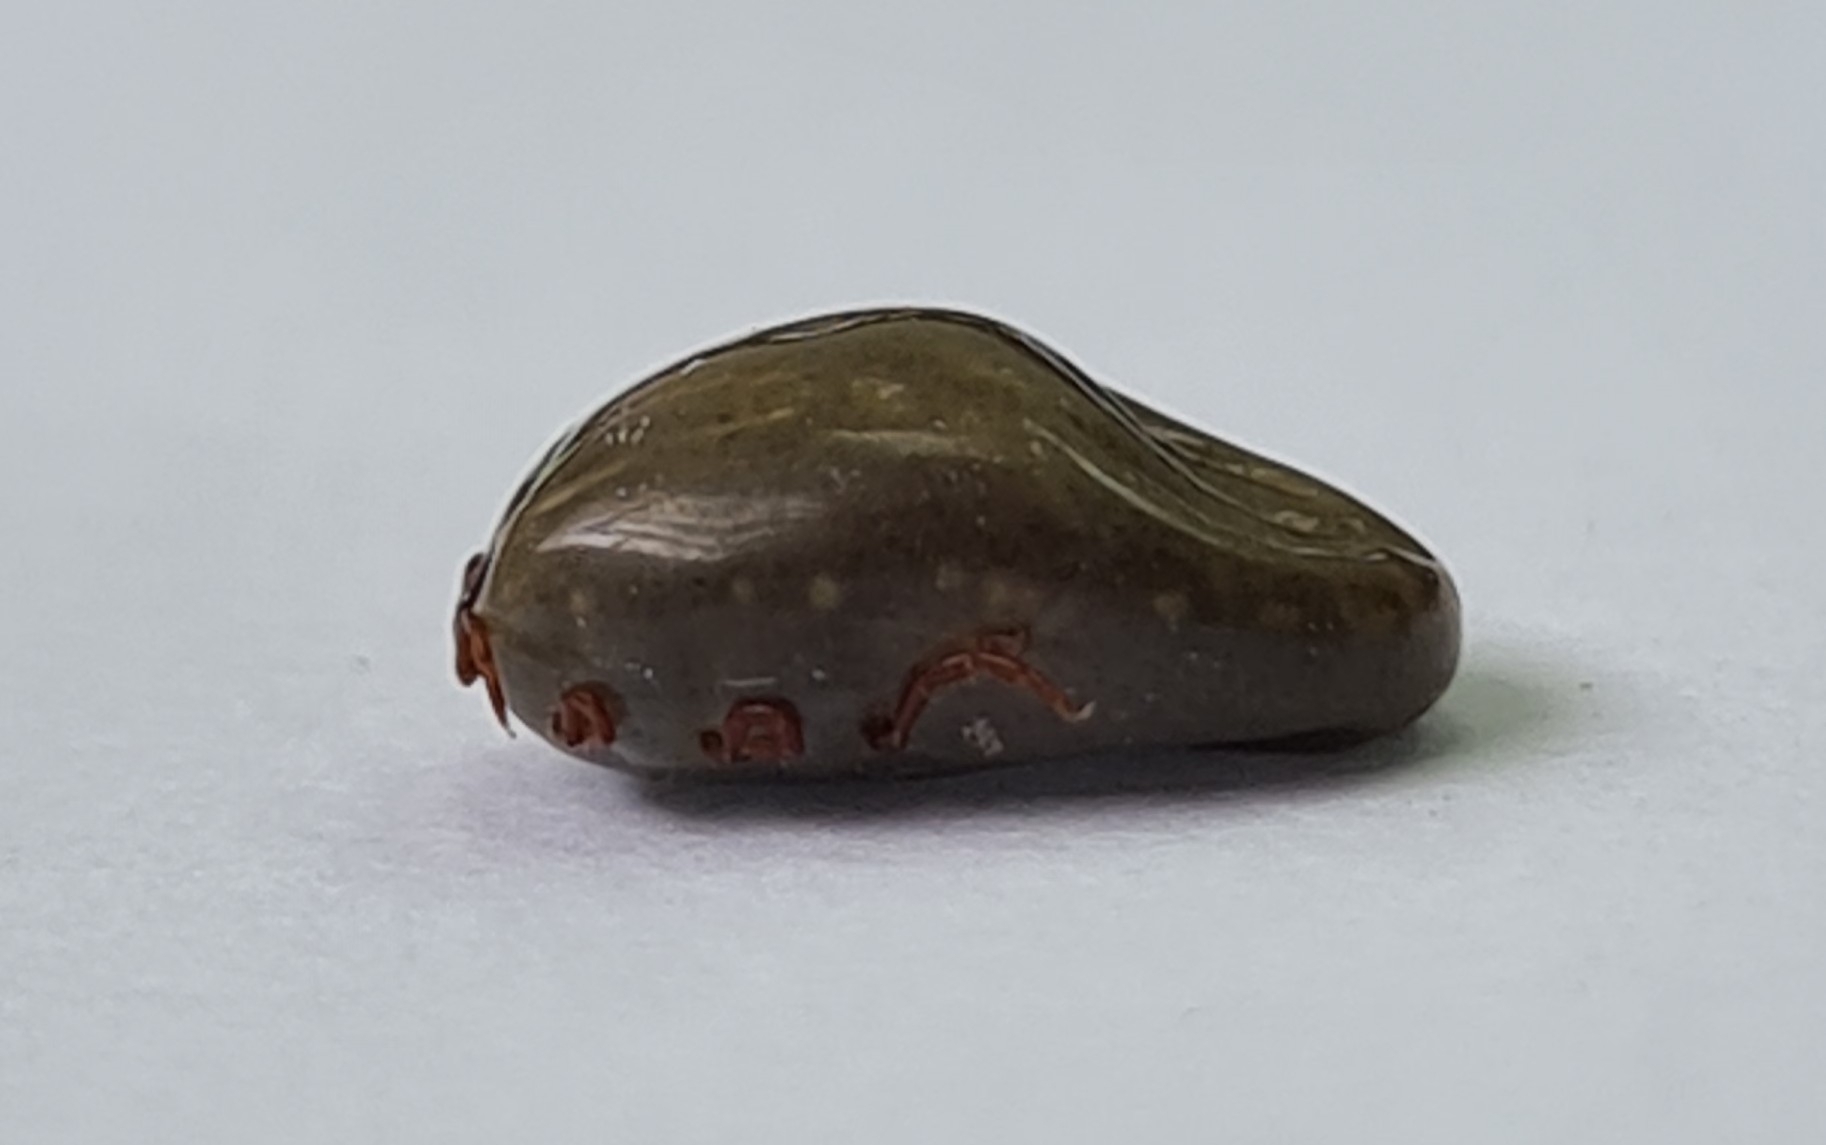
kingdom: Animalia
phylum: Arthropoda
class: Arachnida
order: Ixodida
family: Ixodidae
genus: Rhipicephalus
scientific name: Rhipicephalus sanguineus
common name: Brown dog tick
